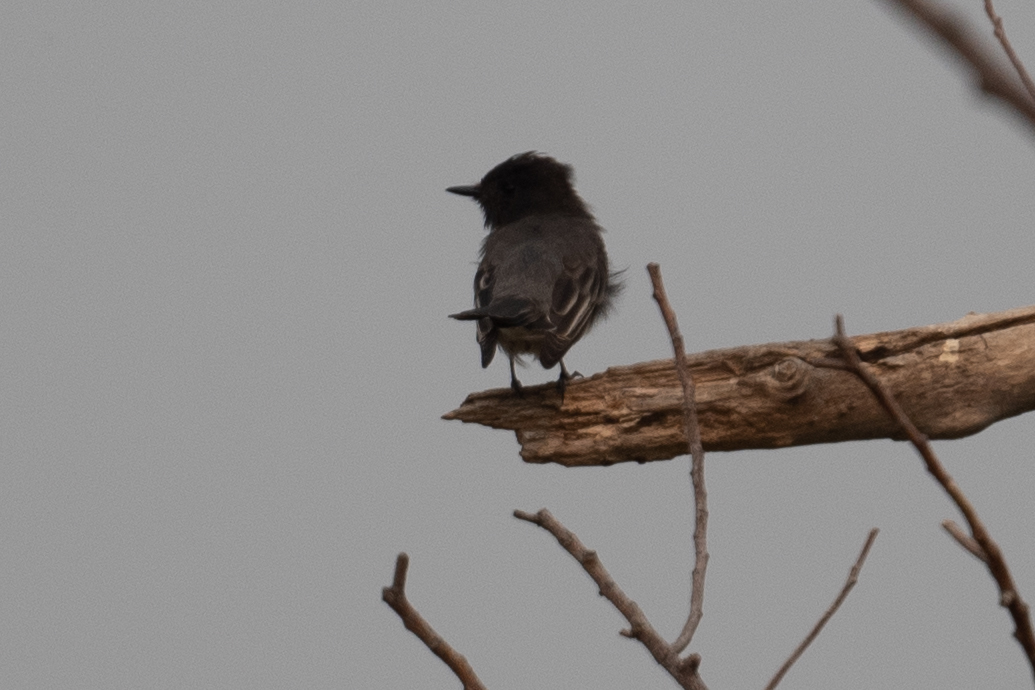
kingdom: Animalia
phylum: Chordata
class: Aves
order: Passeriformes
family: Tyrannidae
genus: Sayornis
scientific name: Sayornis nigricans
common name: Black phoebe
